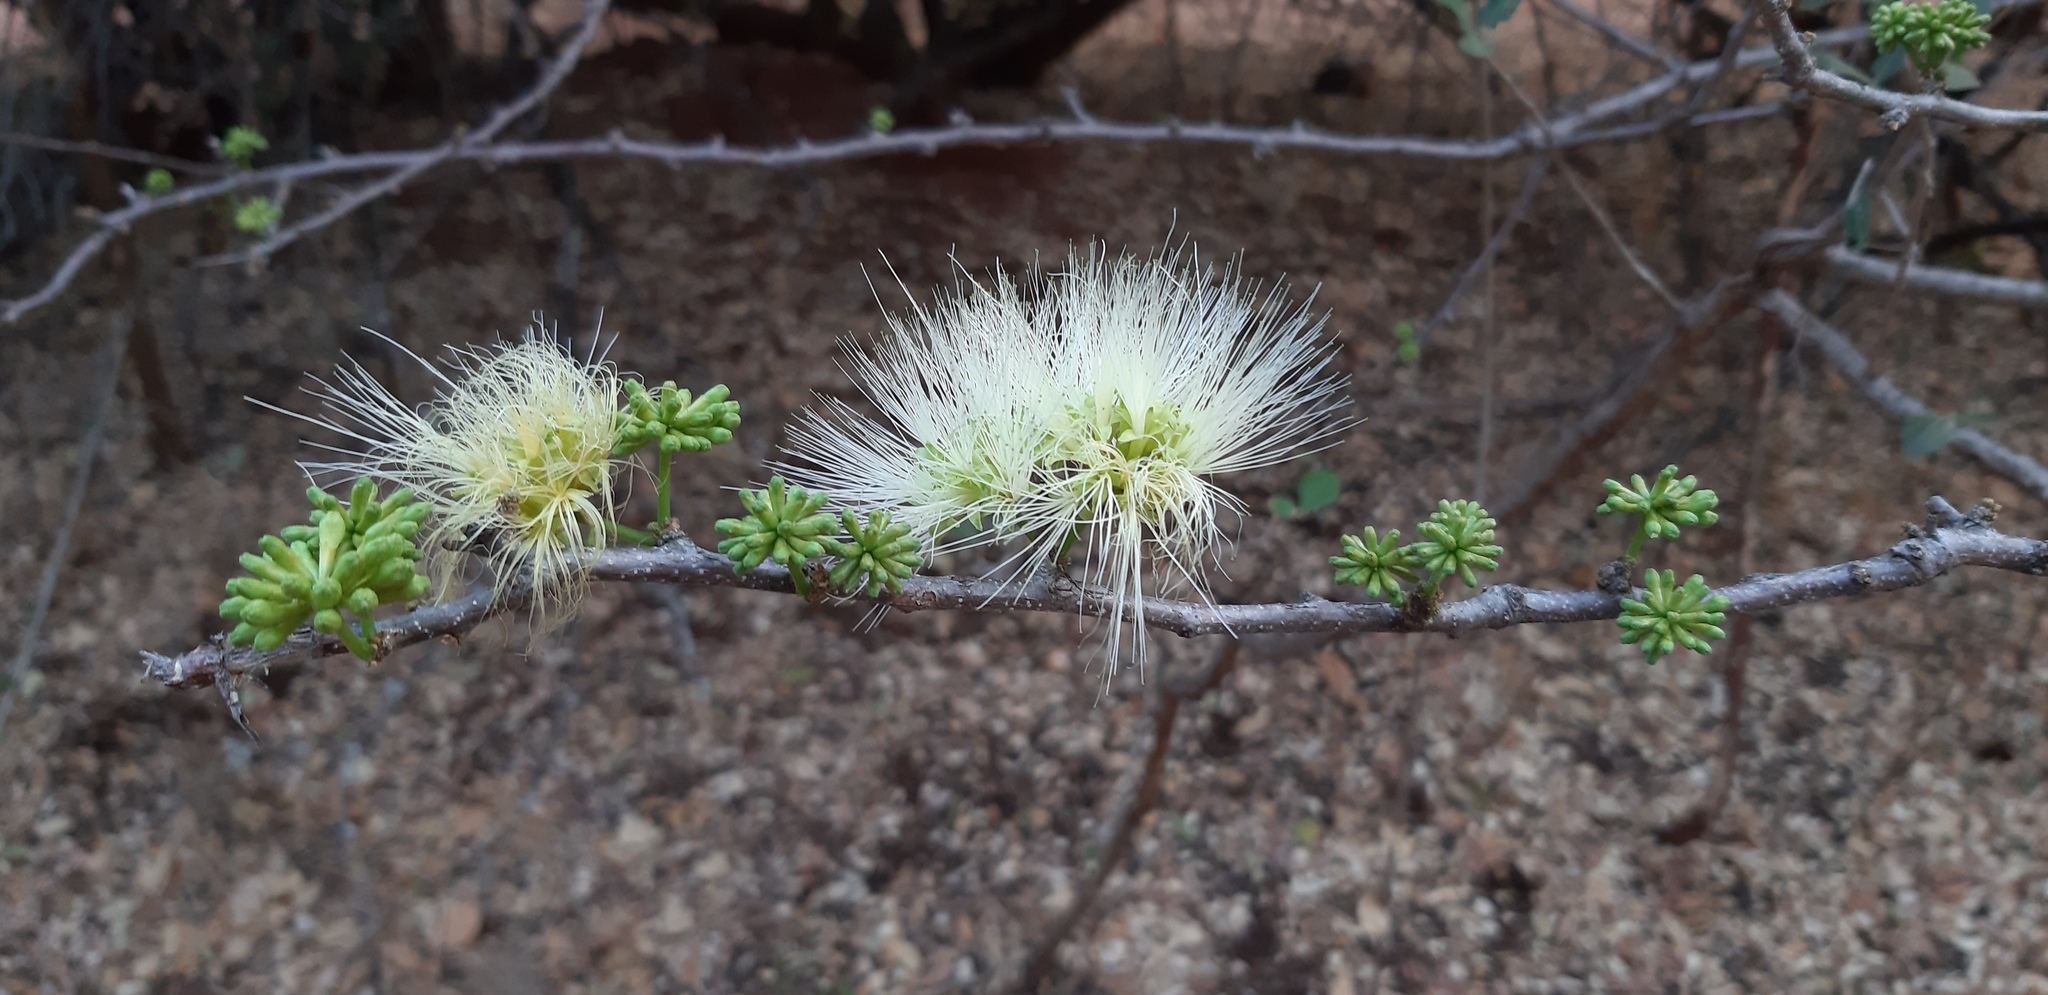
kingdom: Plantae
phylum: Tracheophyta
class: Magnoliopsida
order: Fabales
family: Fabaceae
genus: Albizia
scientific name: Albizia anthelmintica
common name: Worm-bark false-thorn
